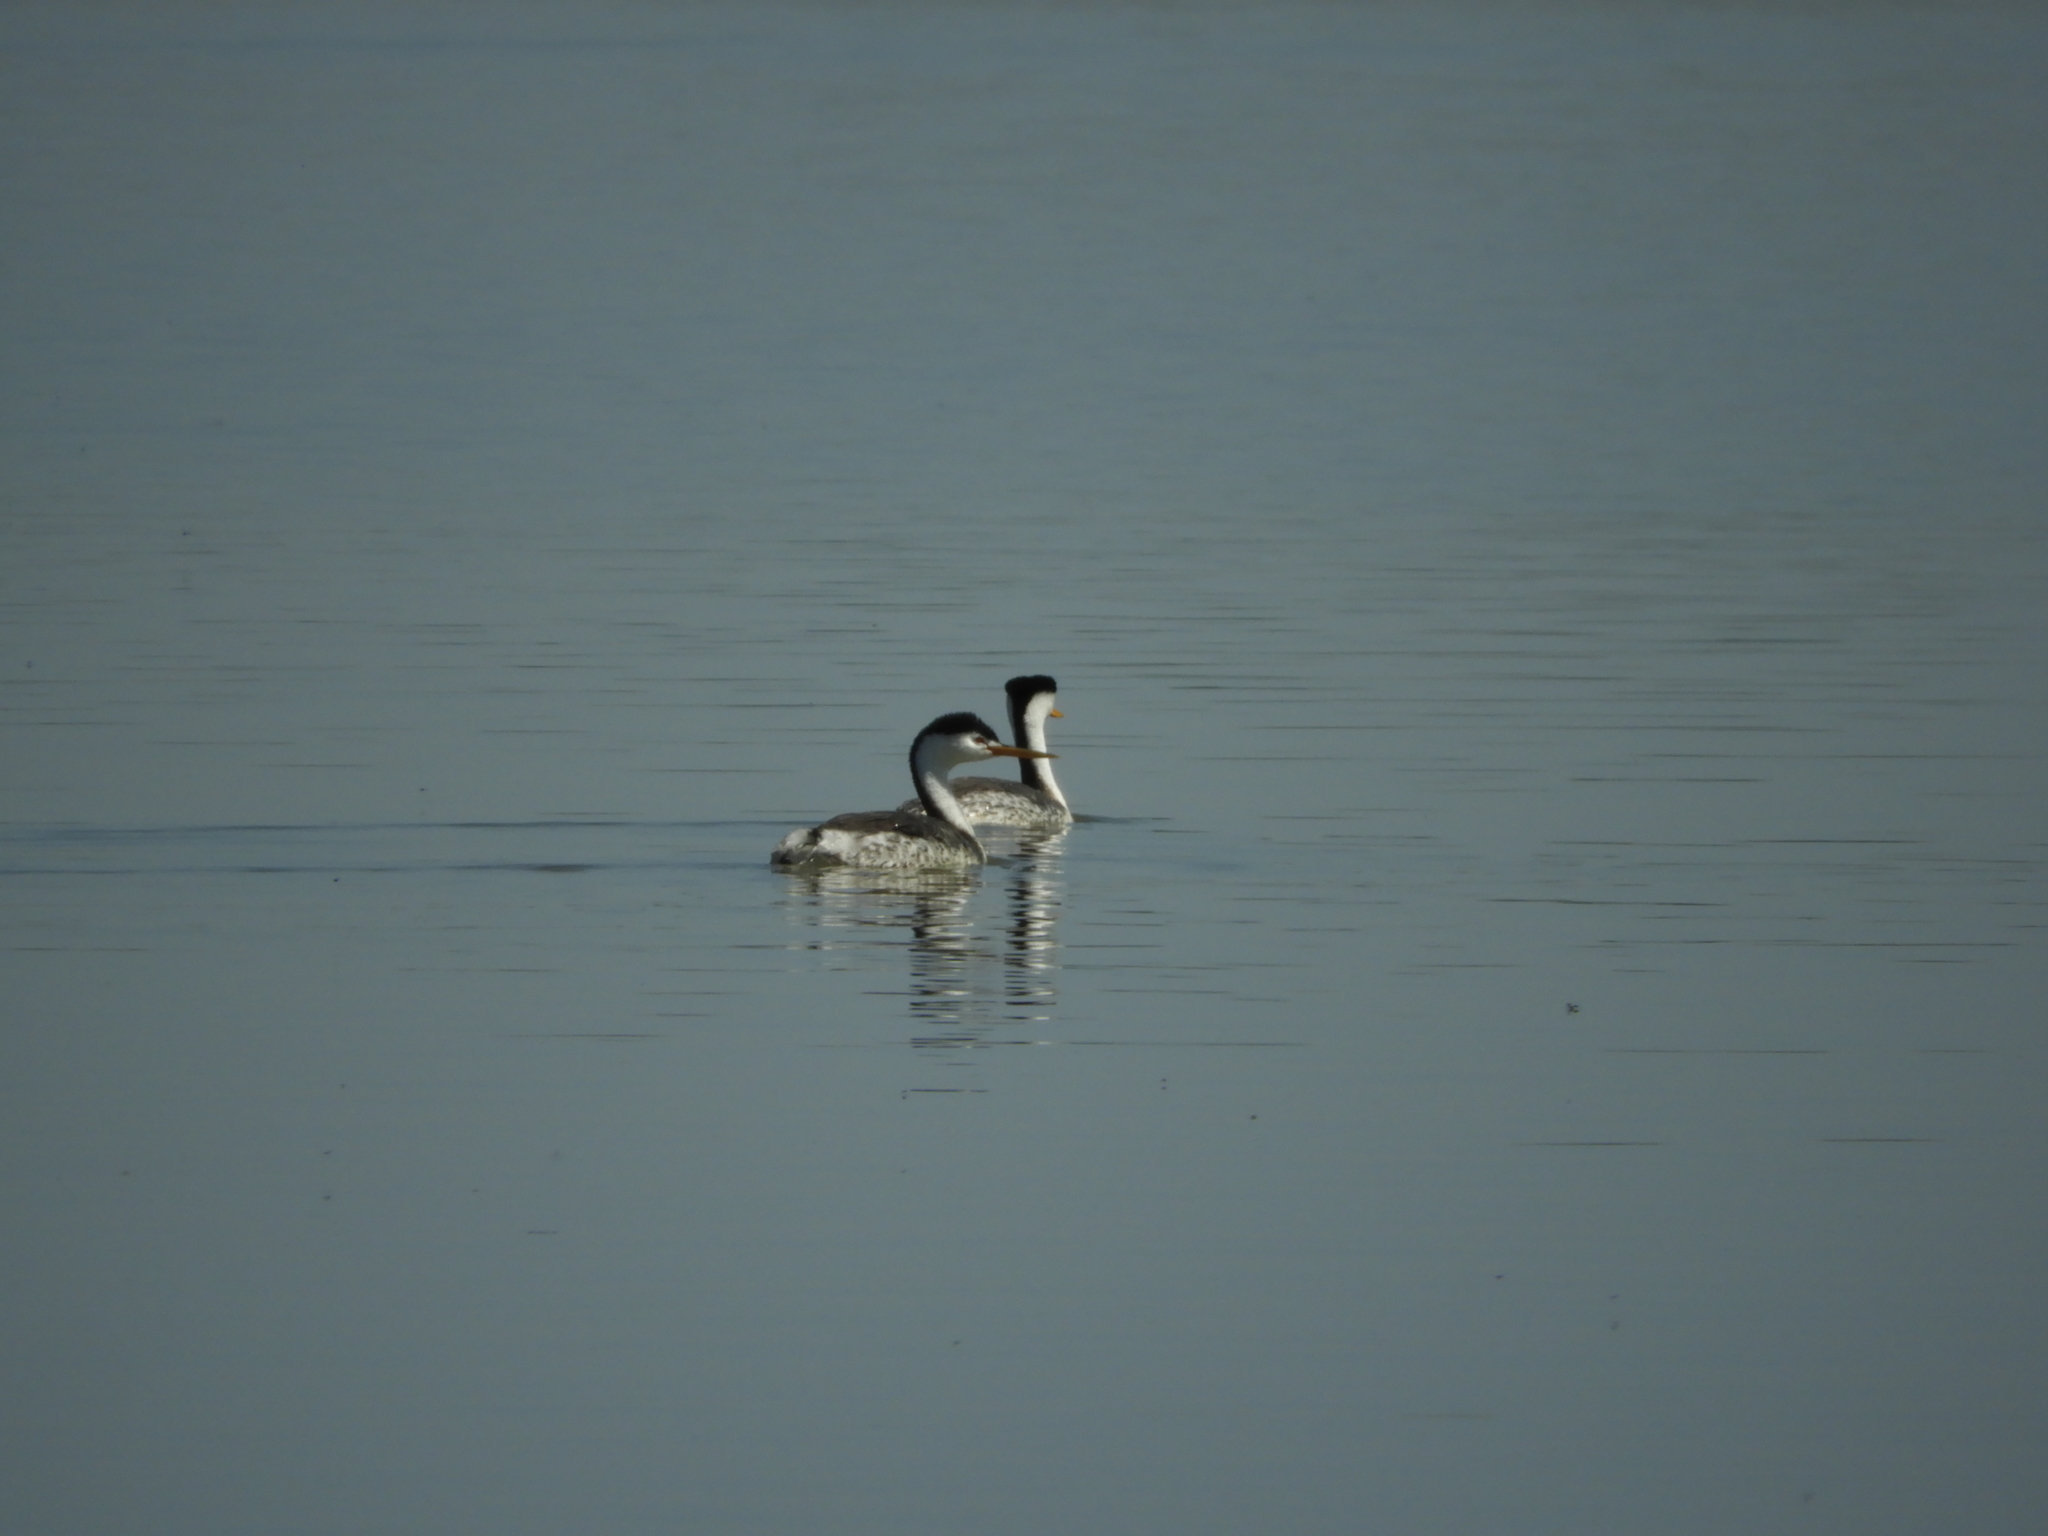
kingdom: Animalia
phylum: Chordata
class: Aves
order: Podicipediformes
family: Podicipedidae
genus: Aechmophorus
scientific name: Aechmophorus clarkii
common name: Clark's grebe
